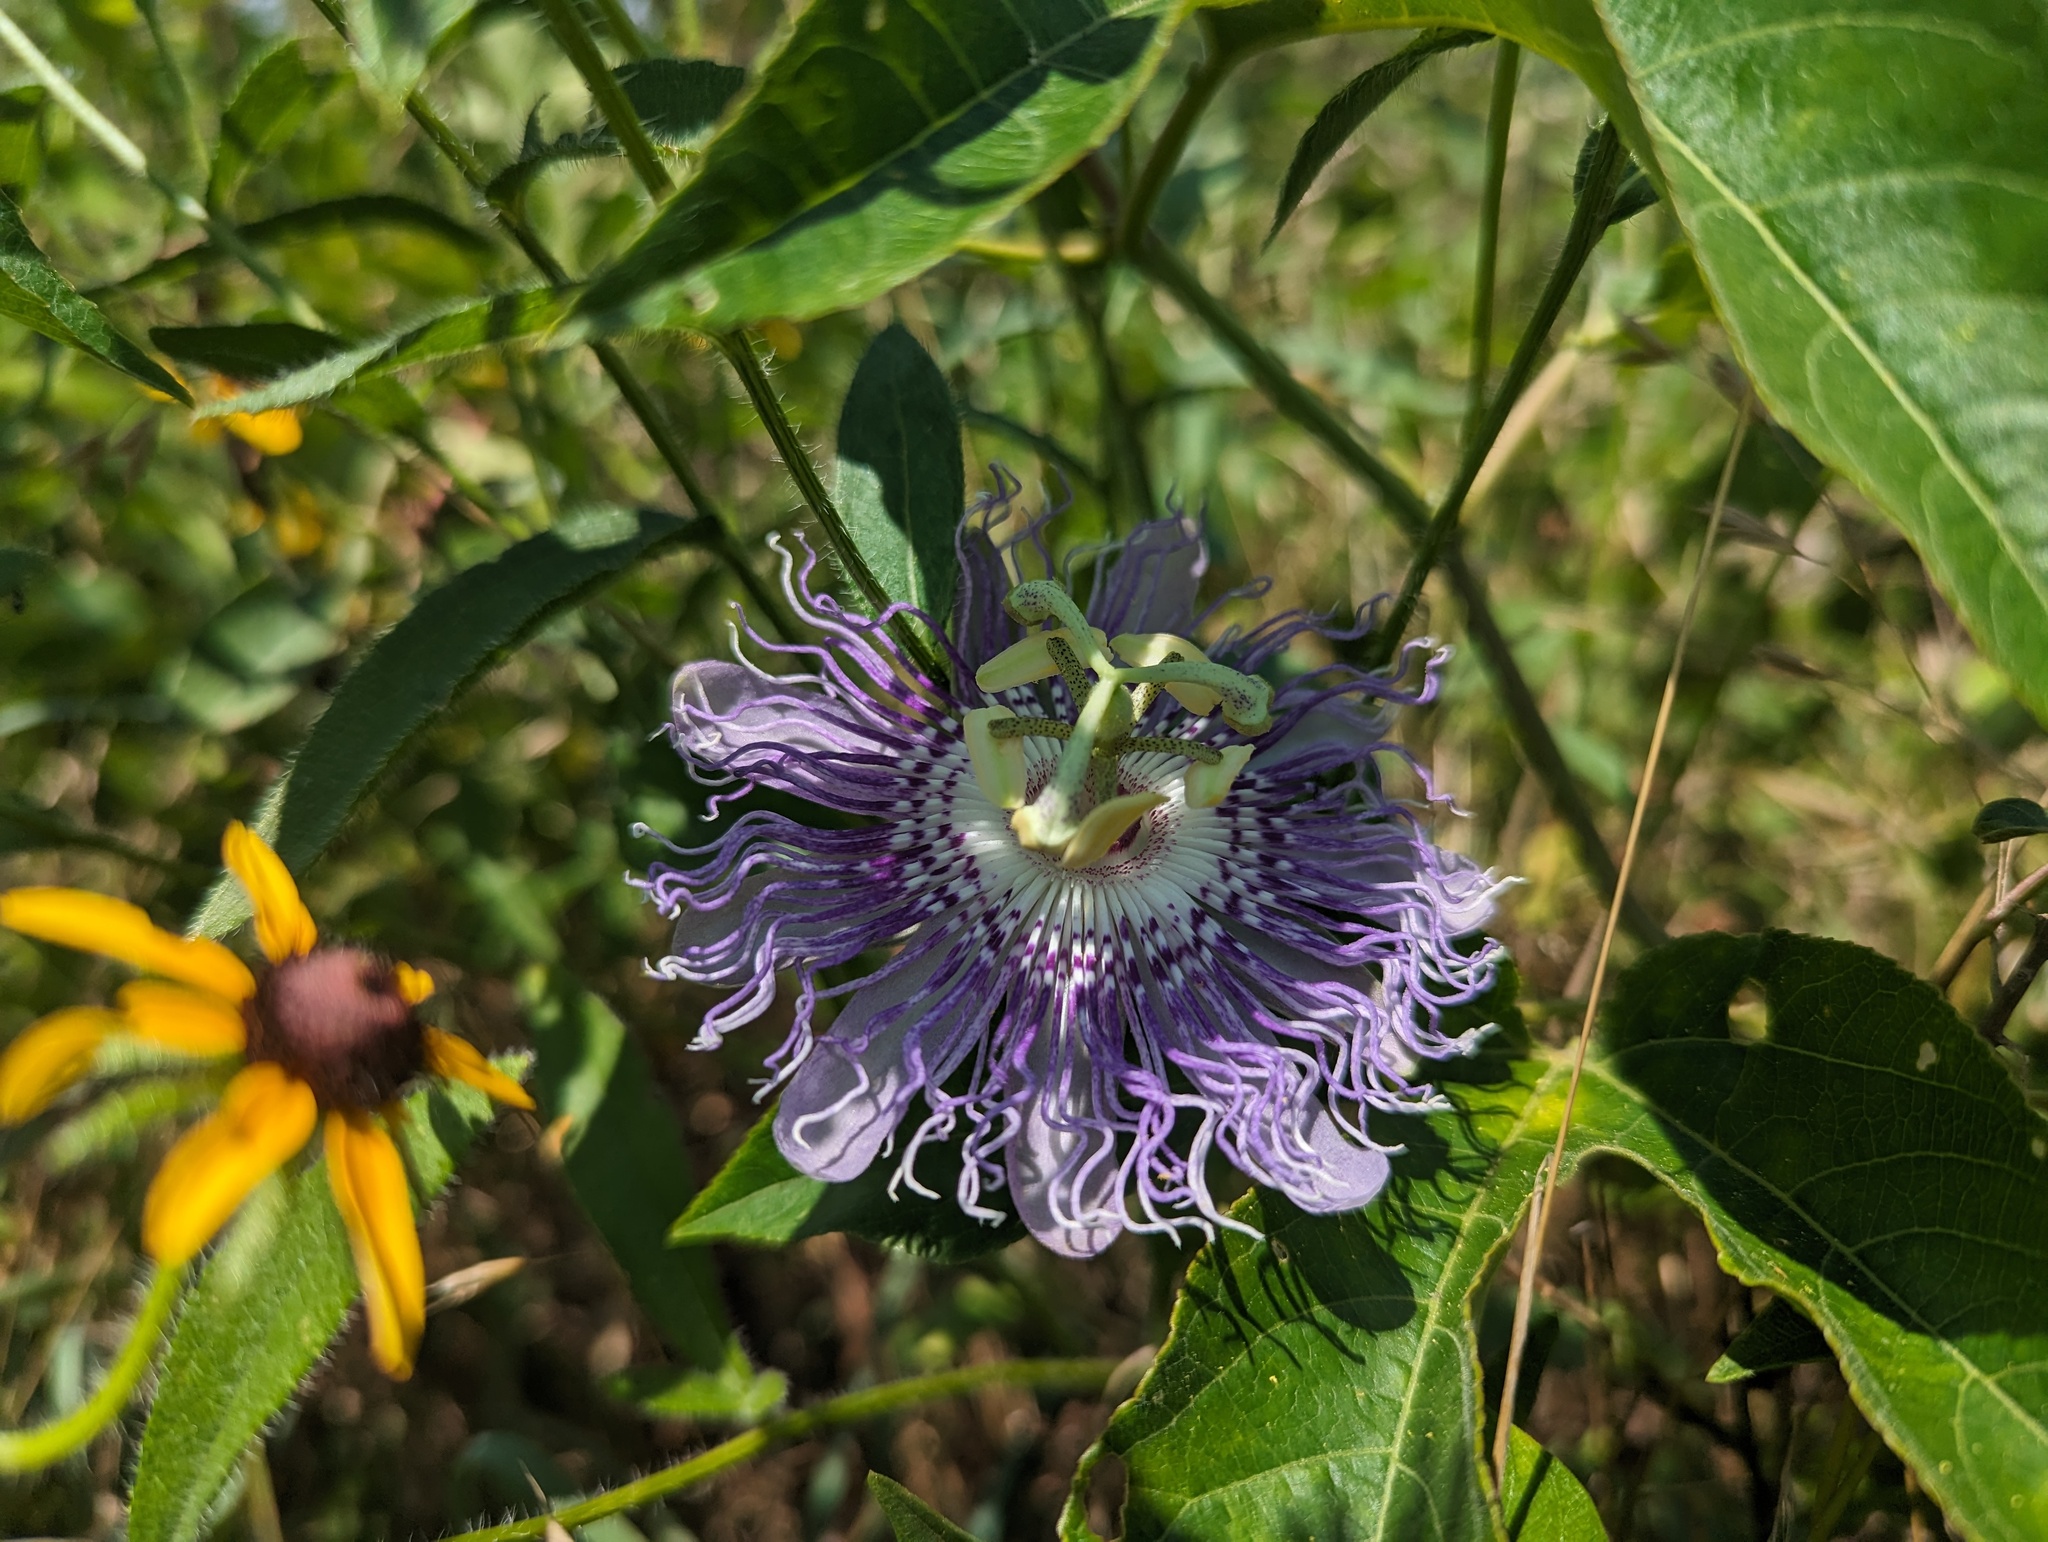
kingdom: Plantae
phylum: Tracheophyta
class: Magnoliopsida
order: Malpighiales
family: Passifloraceae
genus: Passiflora
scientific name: Passiflora incarnata
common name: Apricot-vine
